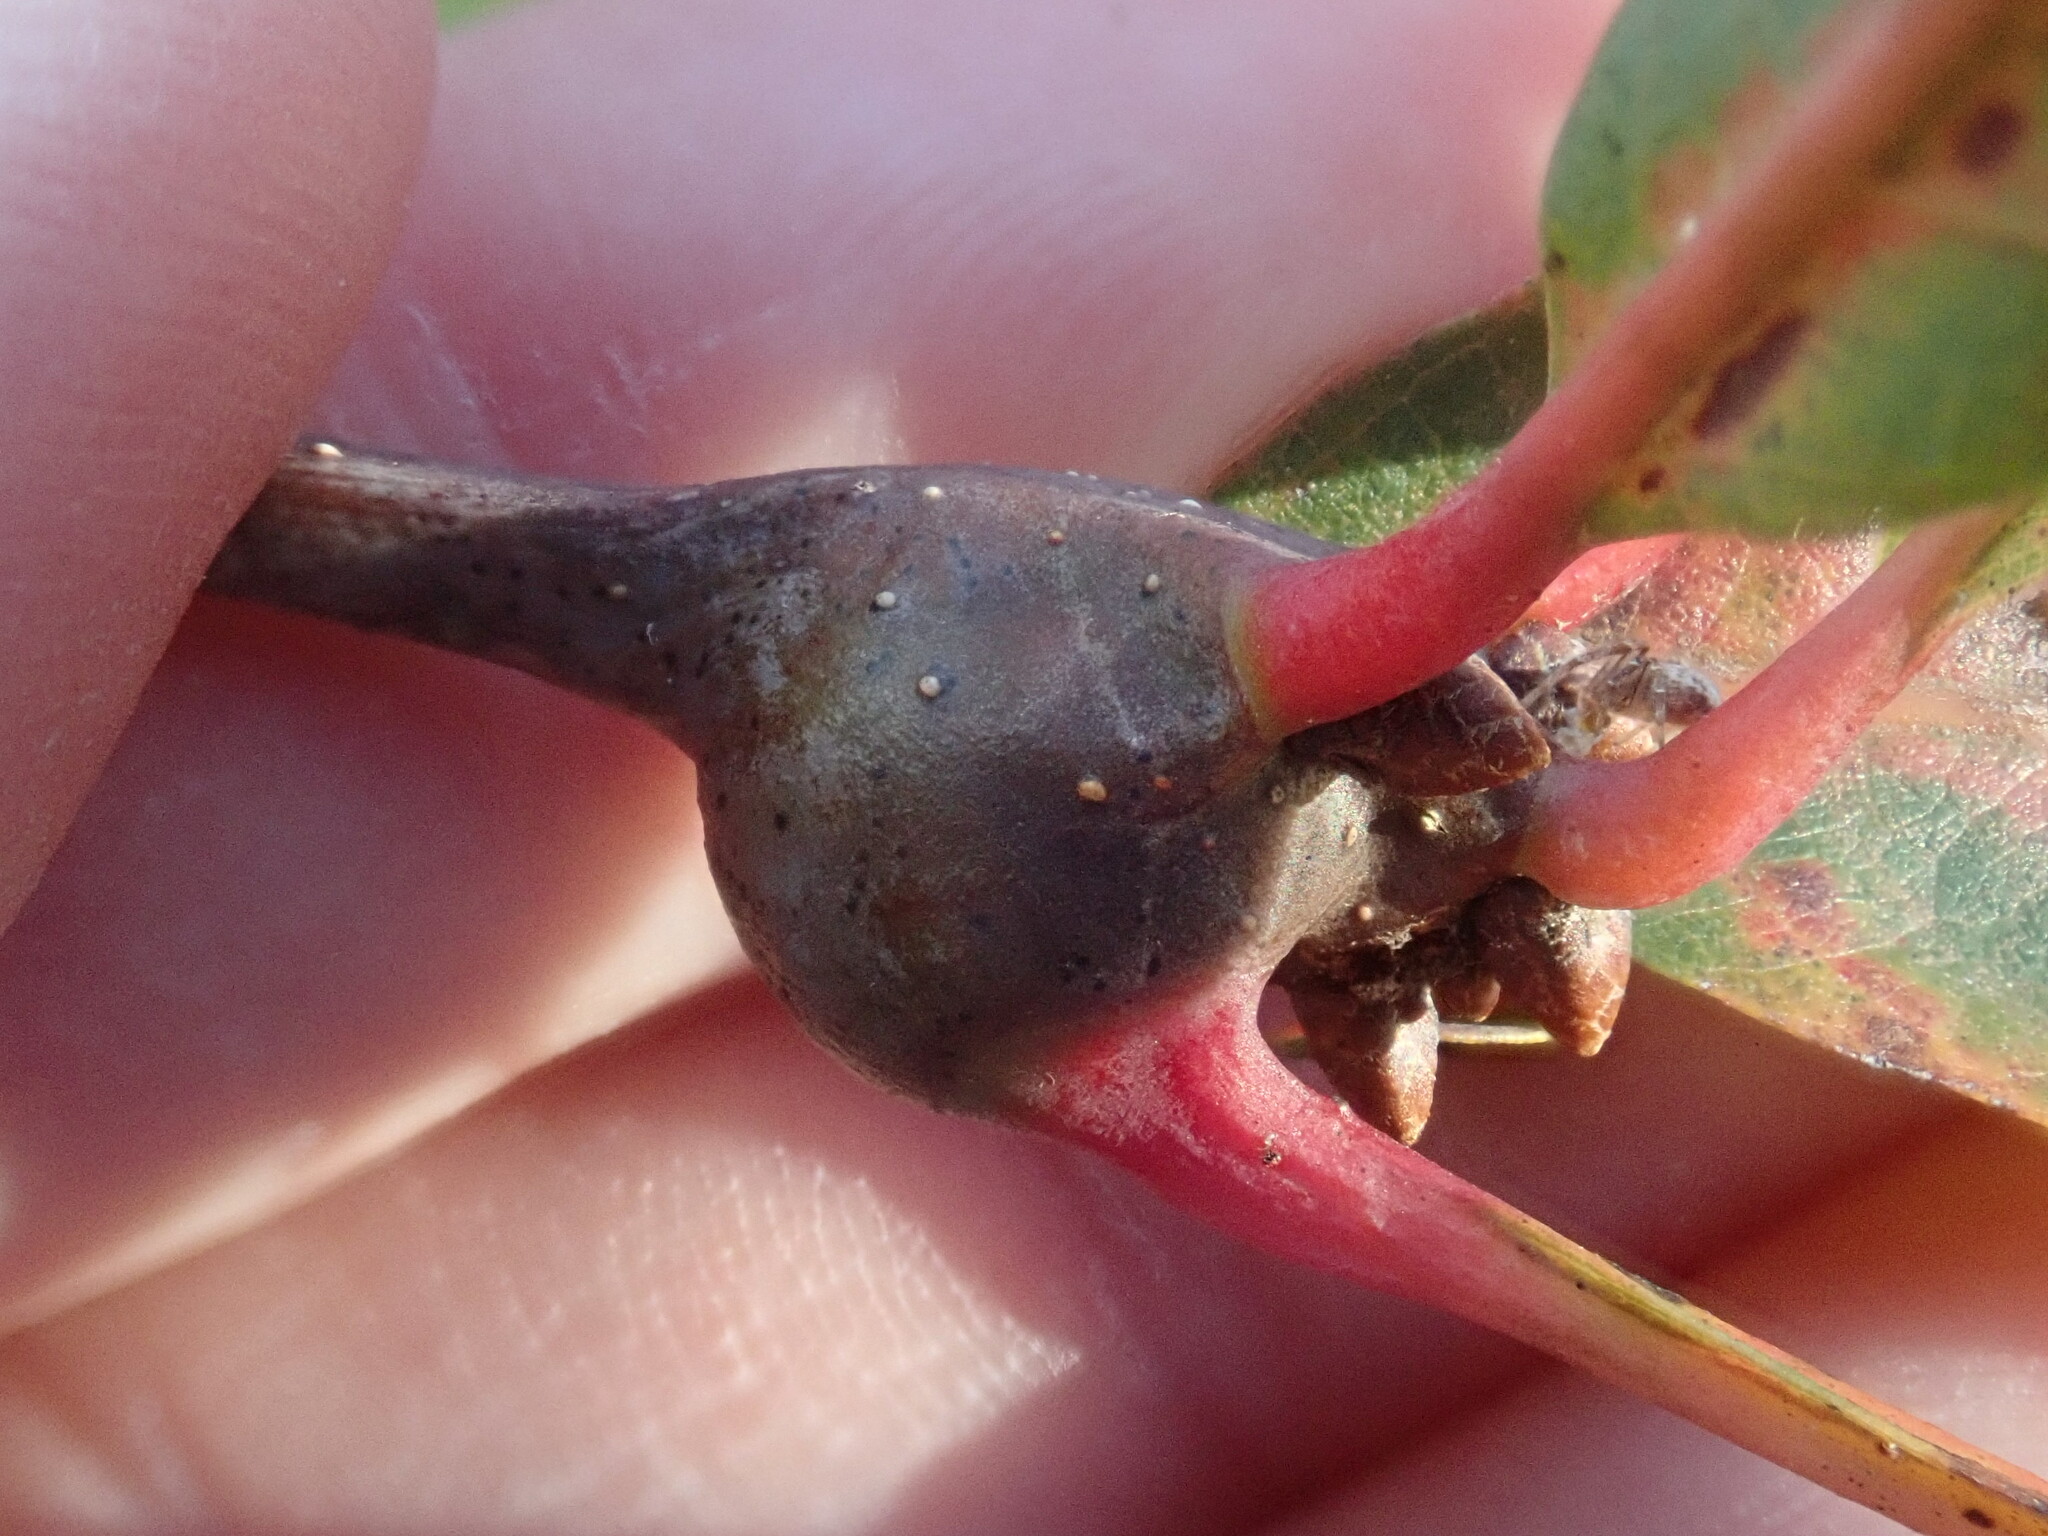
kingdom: Animalia
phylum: Arthropoda
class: Insecta
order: Hymenoptera
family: Cynipidae
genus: Callirhytis
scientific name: Callirhytis clavula
